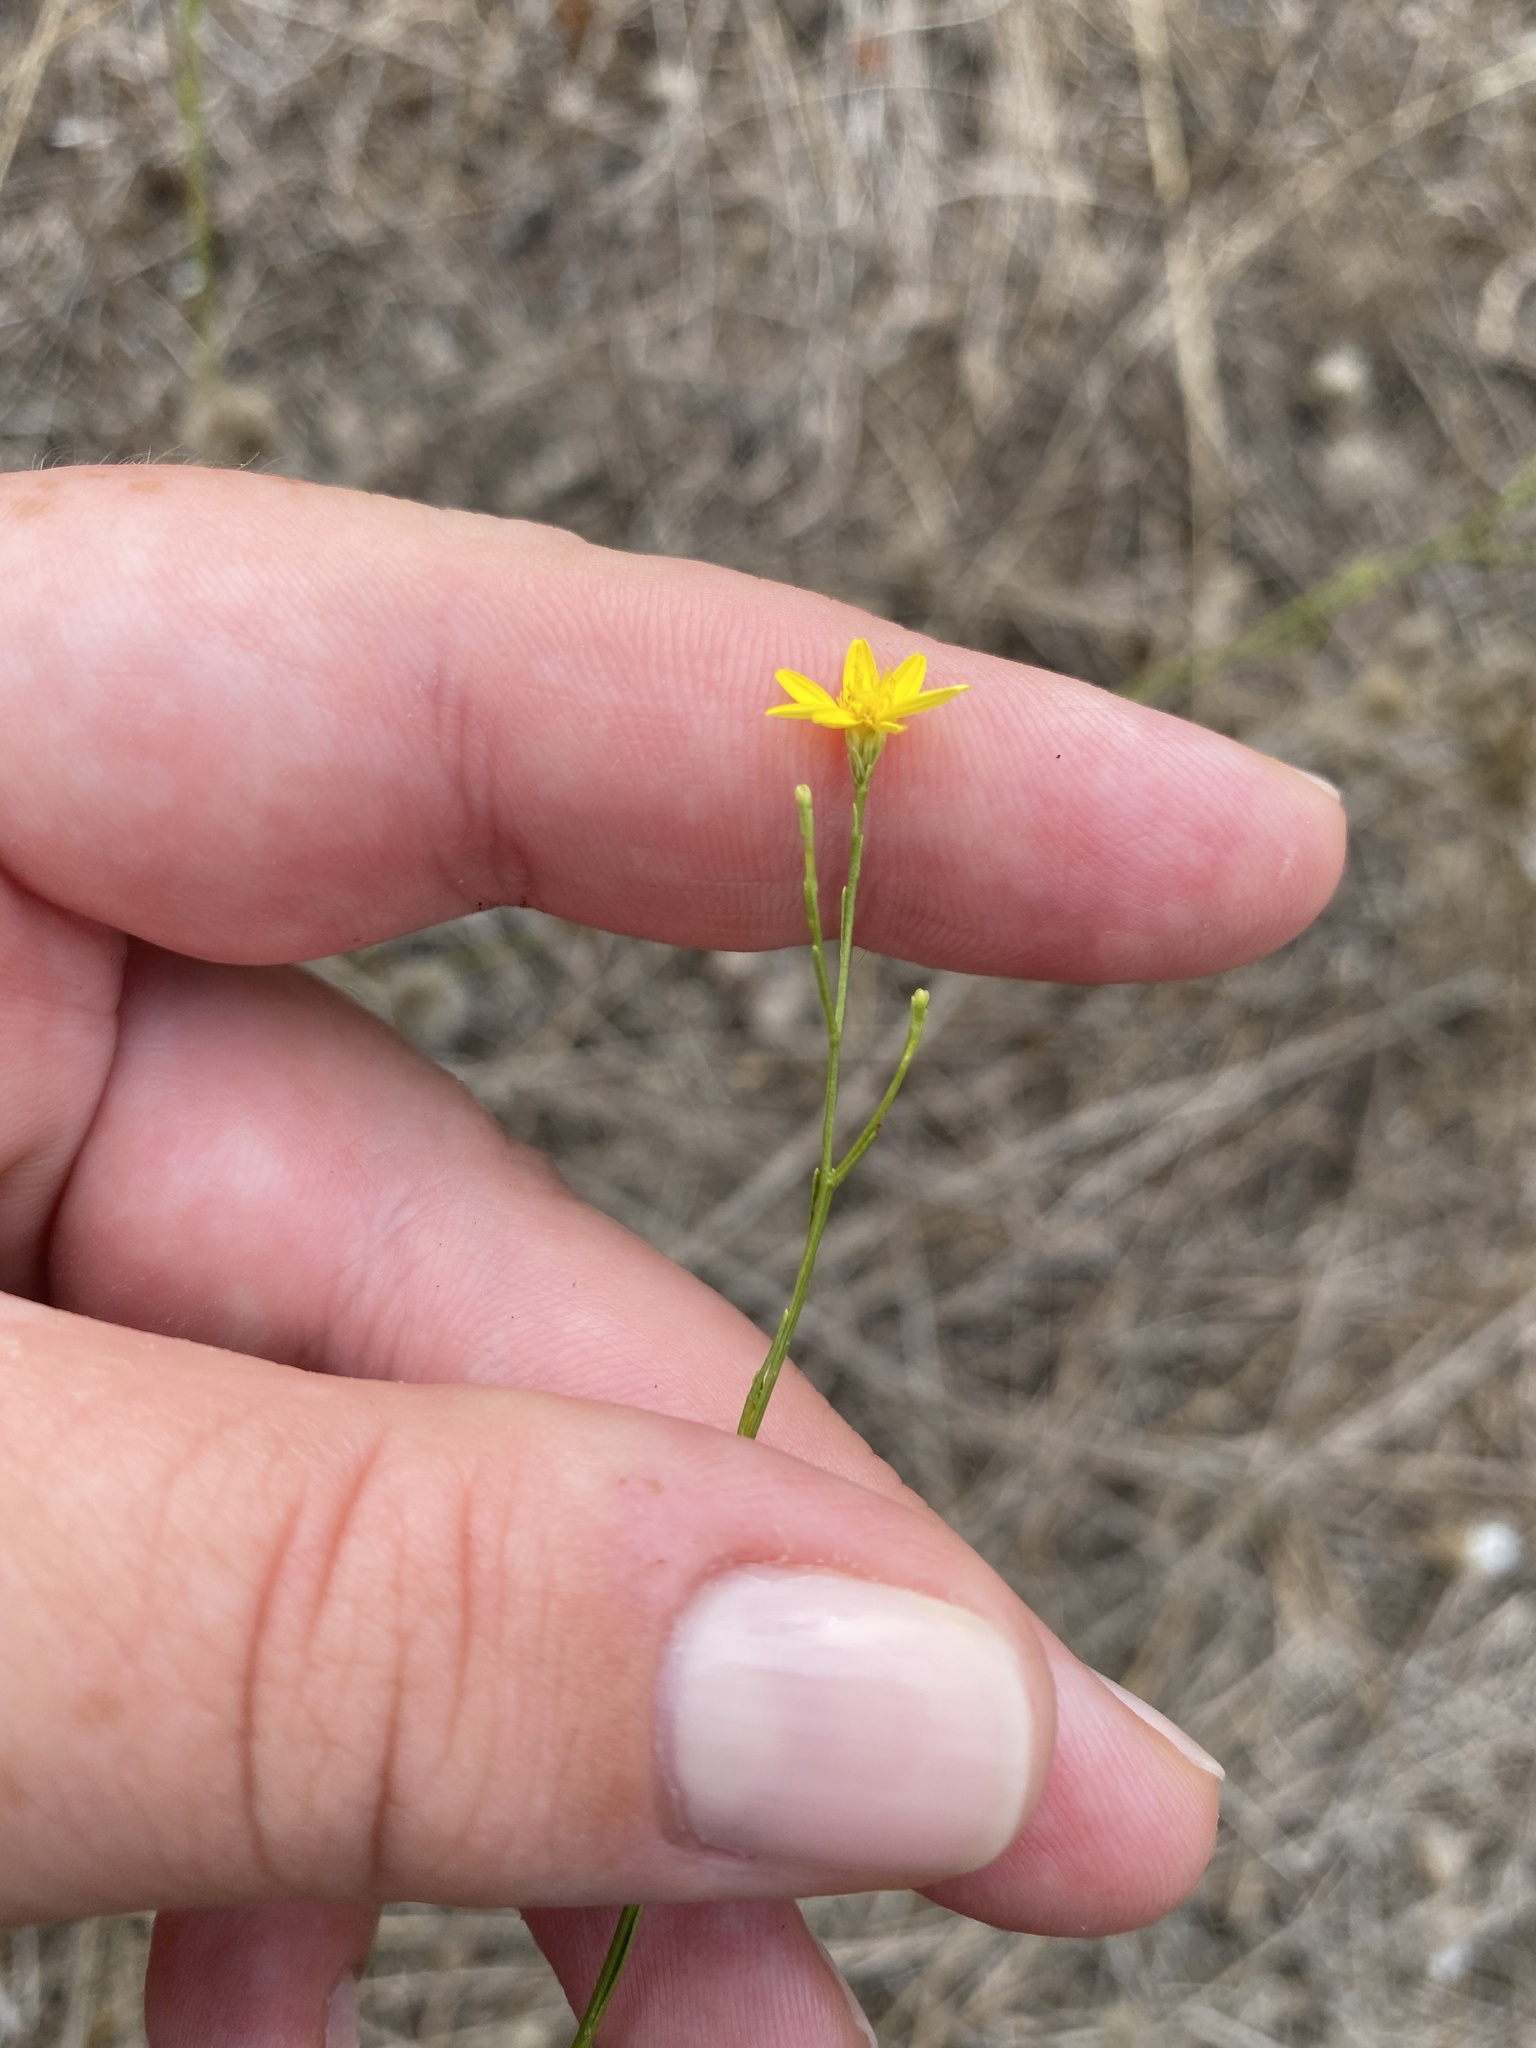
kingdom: Plantae
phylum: Tracheophyta
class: Magnoliopsida
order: Asterales
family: Asteraceae
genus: Gutierrezia
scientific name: Gutierrezia texana
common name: Texas snakeweed
